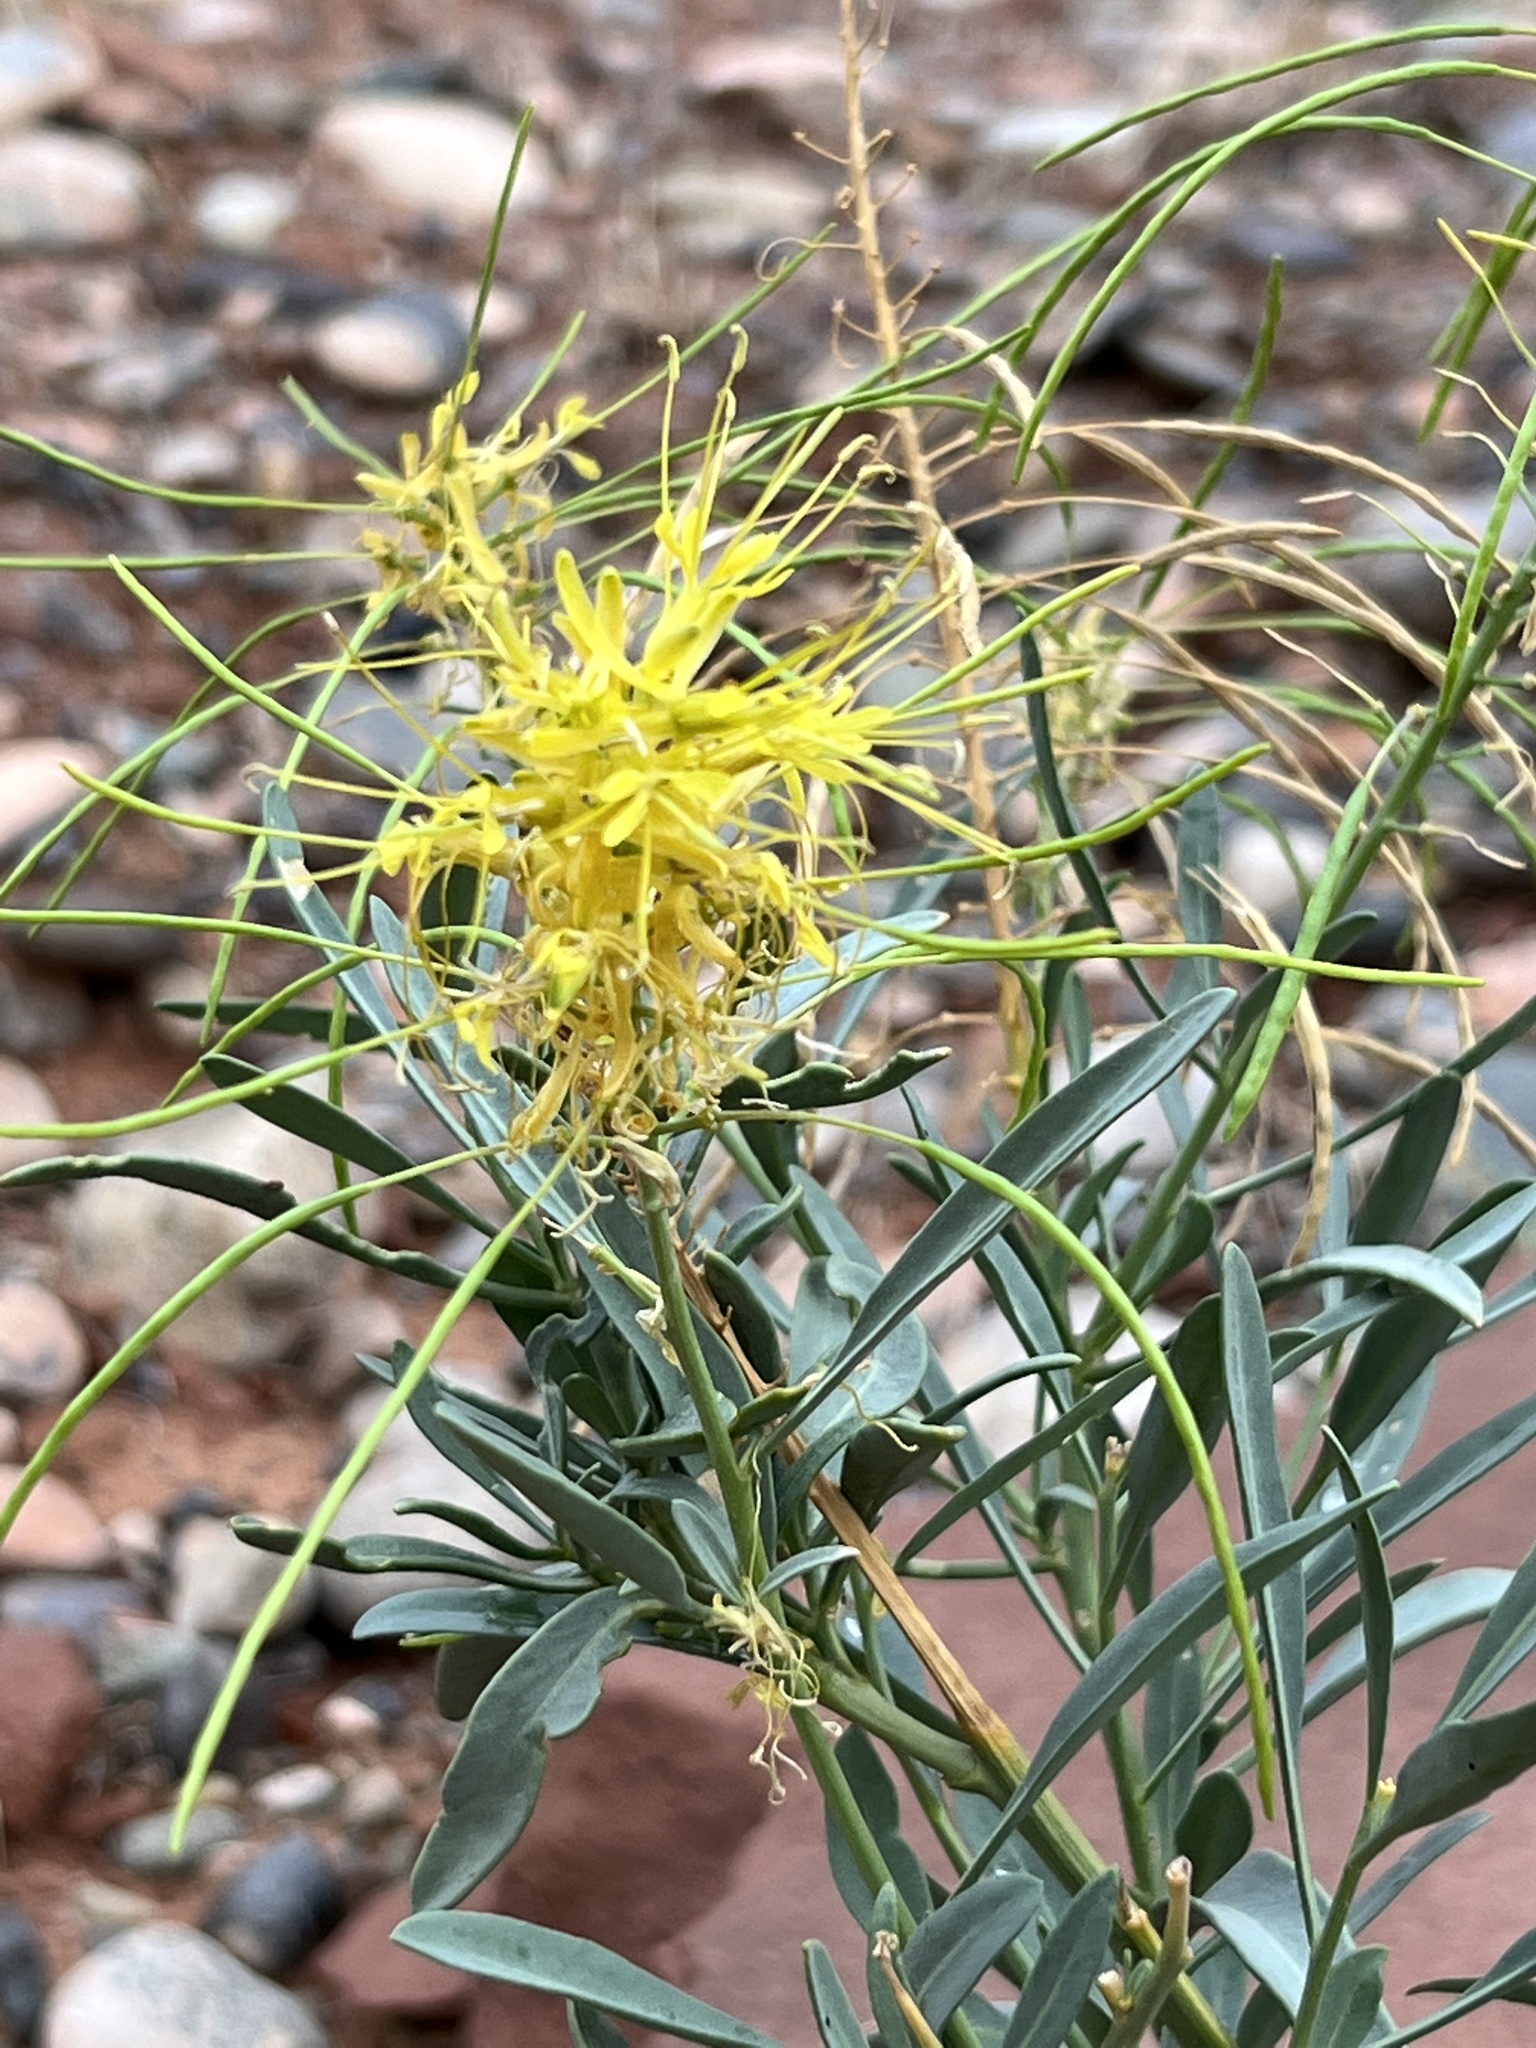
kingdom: Plantae
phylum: Tracheophyta
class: Magnoliopsida
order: Brassicales
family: Brassicaceae
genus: Stanleya
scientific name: Stanleya pinnata
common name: Prince's-plume
